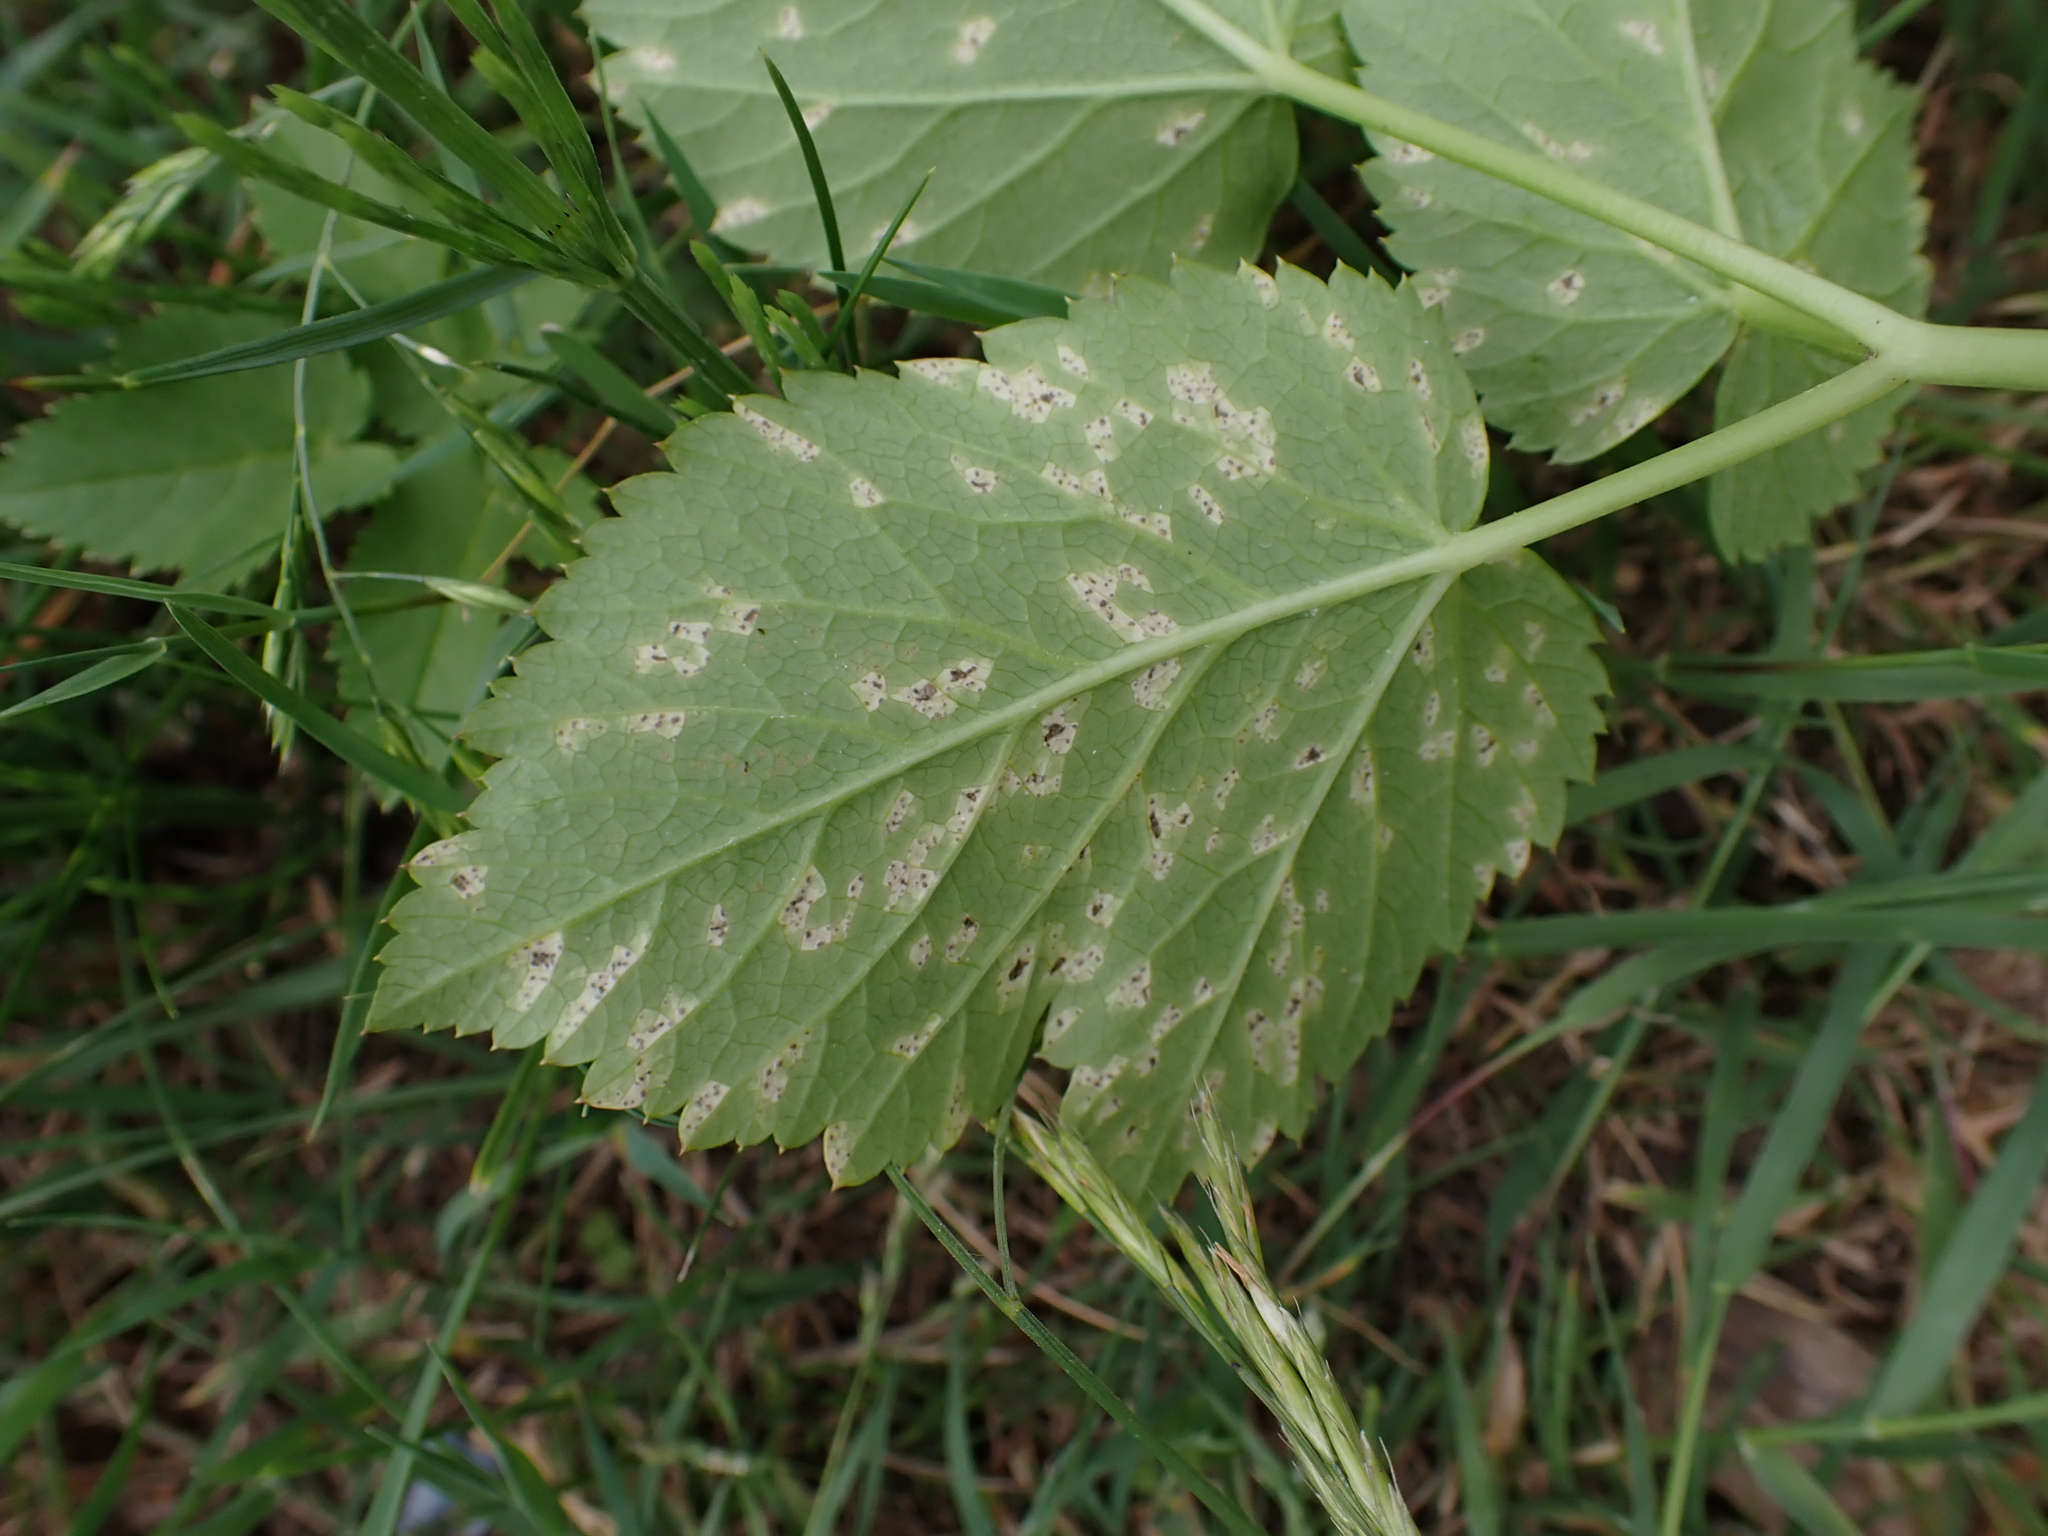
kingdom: Fungi
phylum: Ascomycota
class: Dothideomycetes
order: Mycosphaerellales
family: Mycosphaerellaceae
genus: Mycosphaerella
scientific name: Mycosphaerella podagrariae
